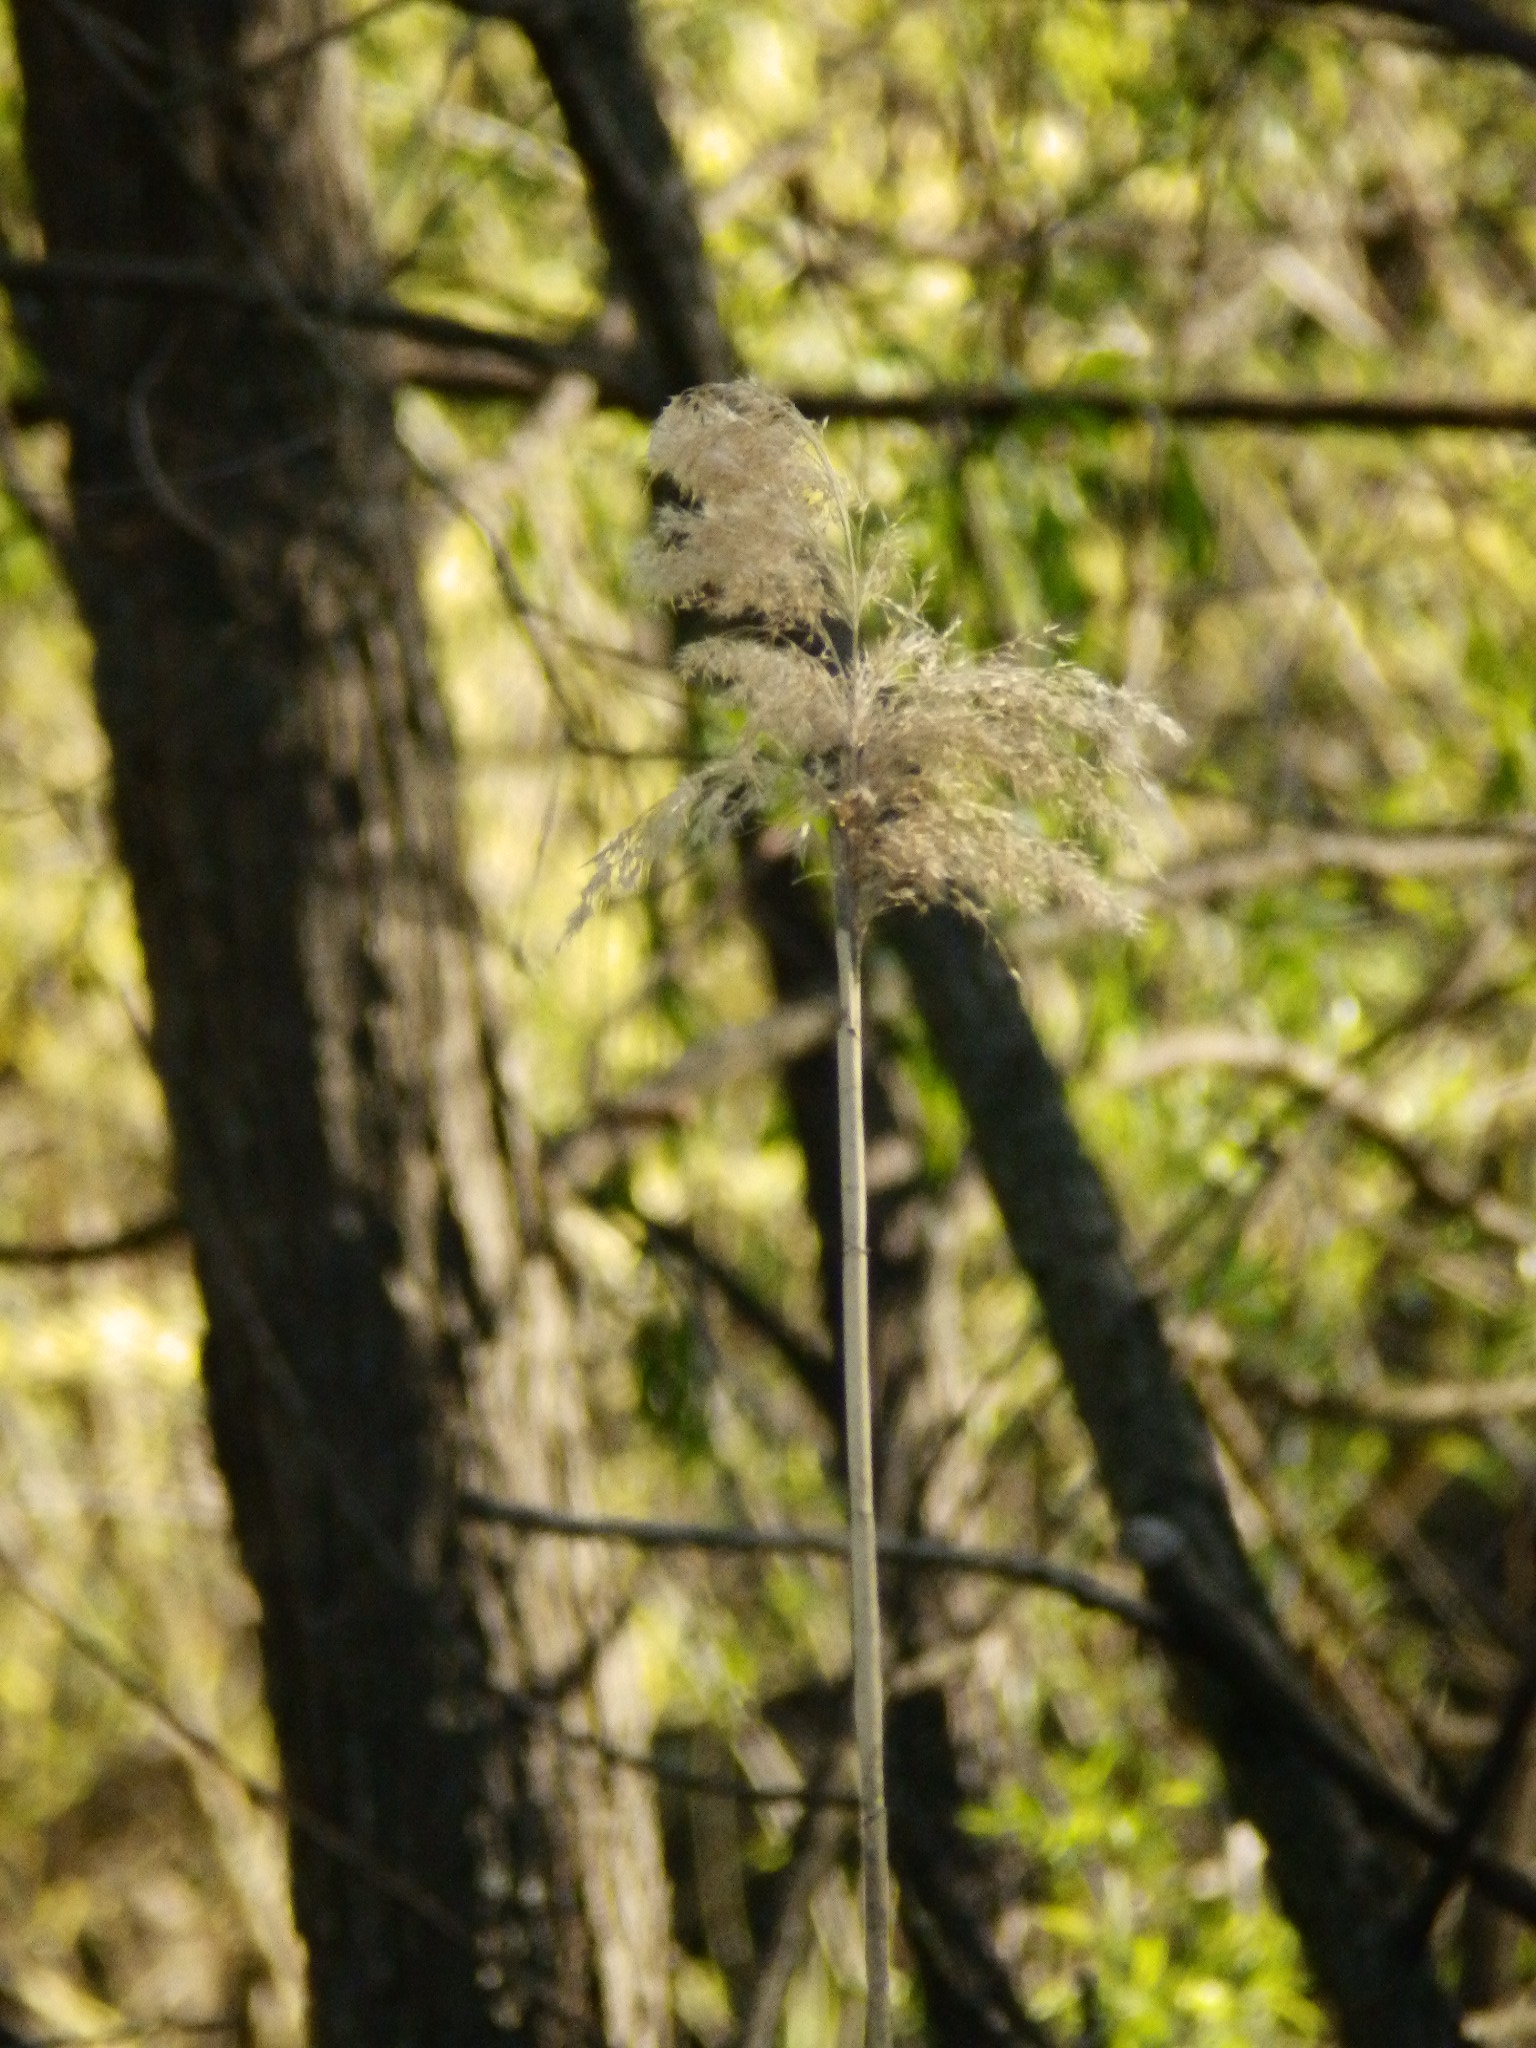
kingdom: Plantae
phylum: Tracheophyta
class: Liliopsida
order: Poales
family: Poaceae
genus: Phragmites
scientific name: Phragmites australis
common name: Common reed
